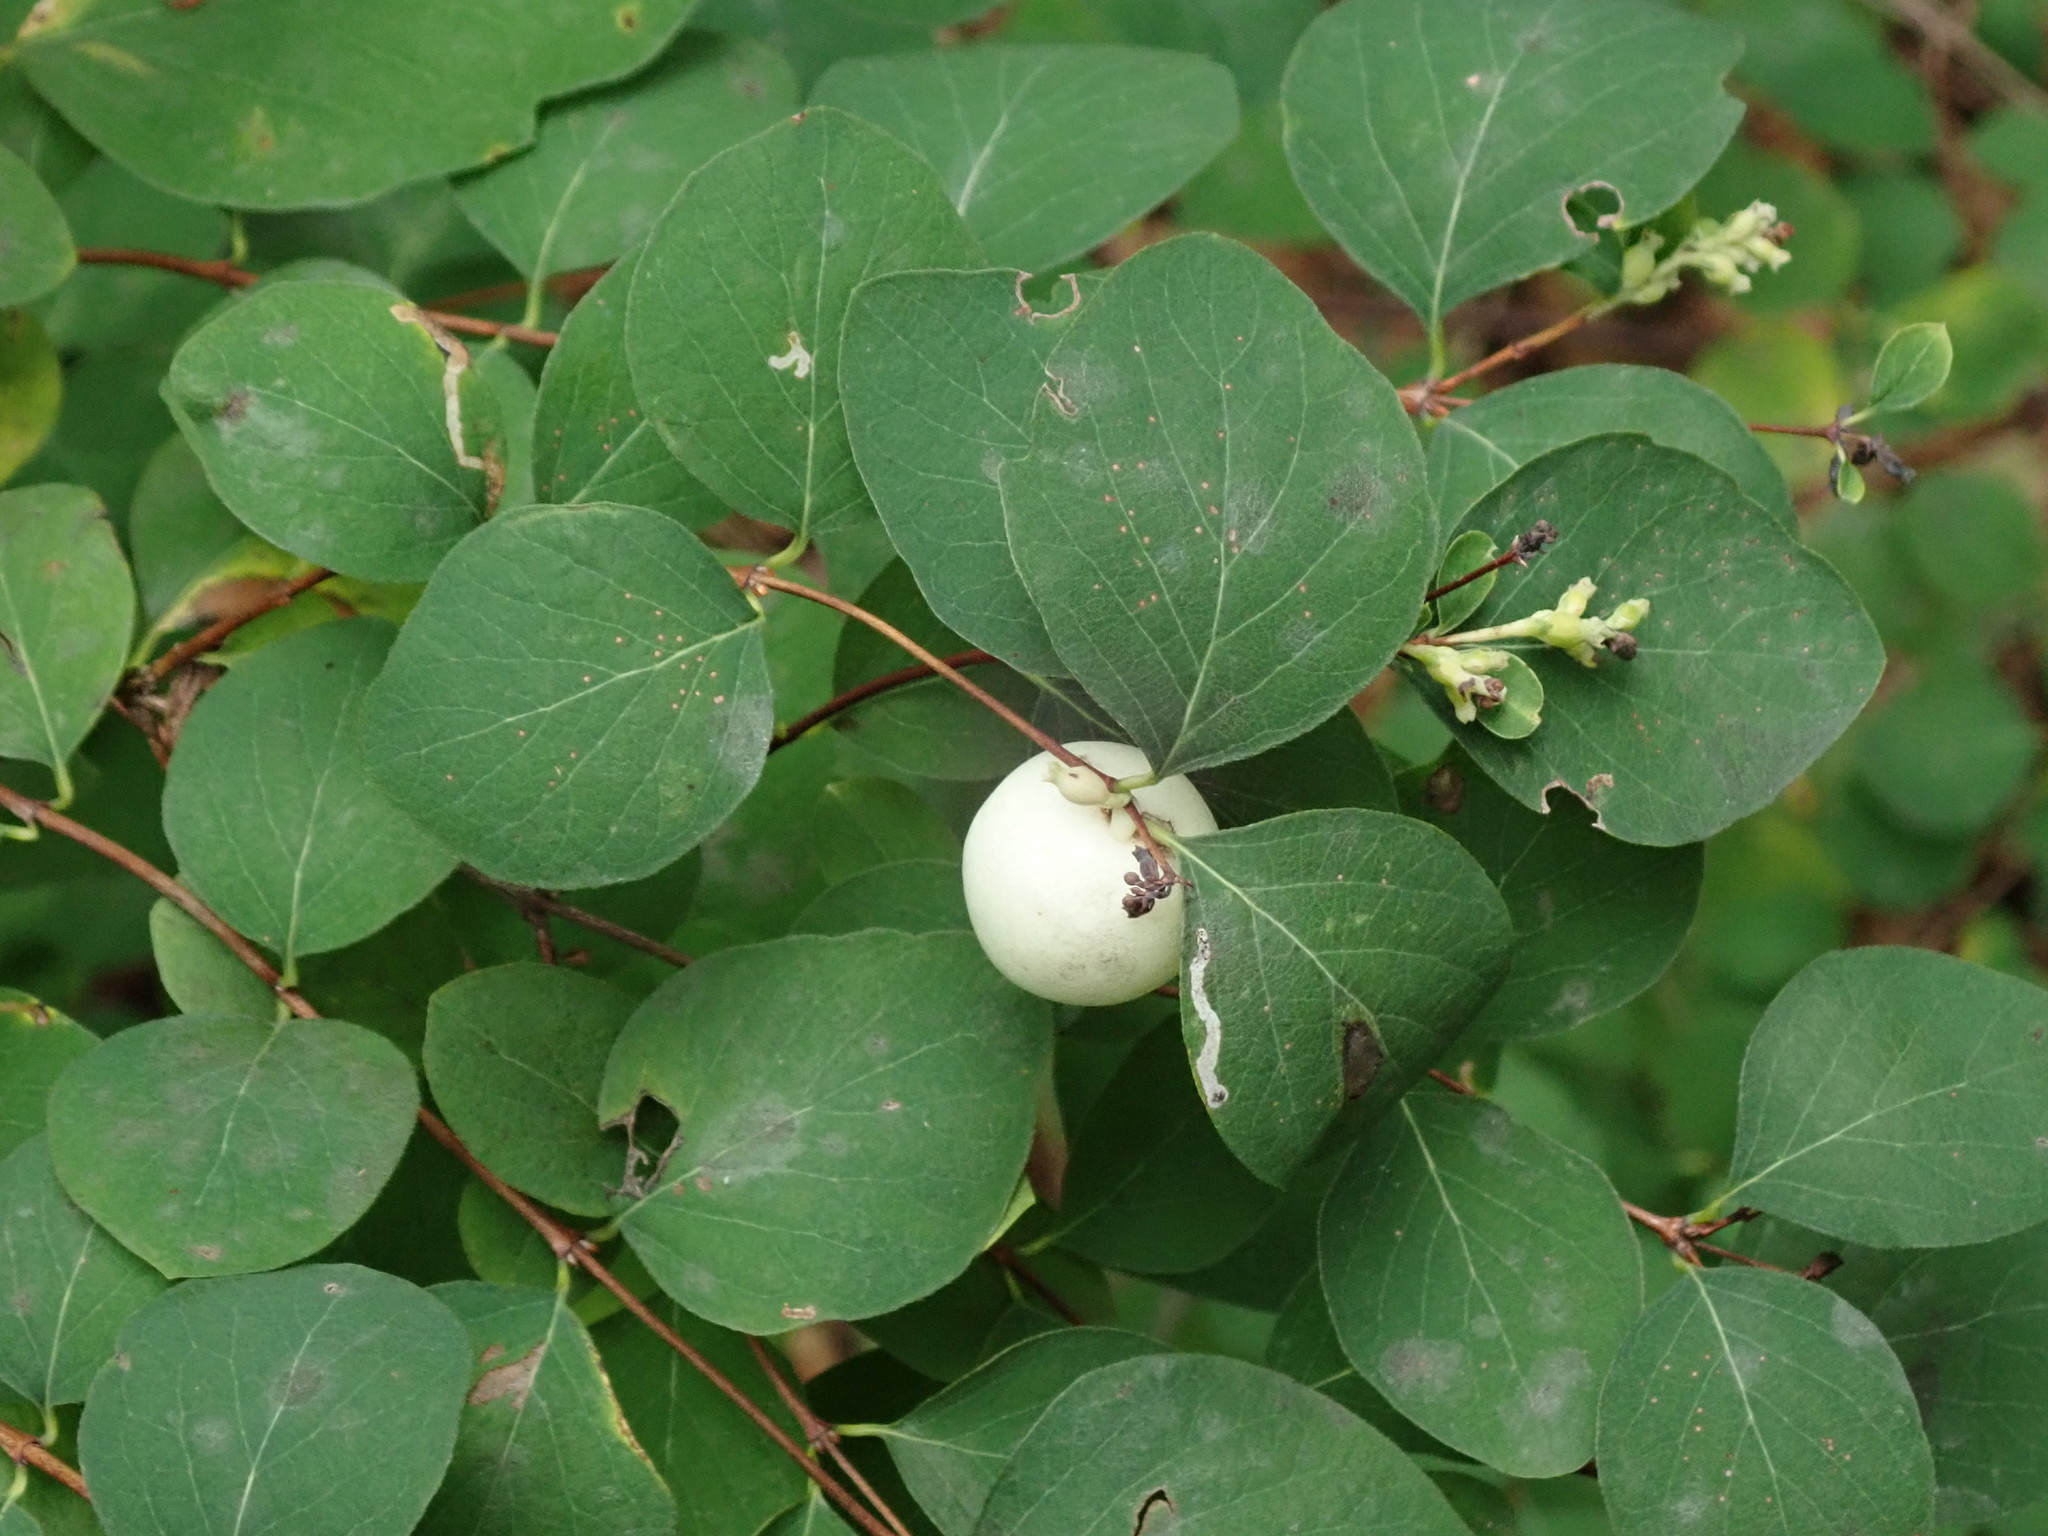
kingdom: Plantae
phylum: Tracheophyta
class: Magnoliopsida
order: Dipsacales
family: Caprifoliaceae
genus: Symphoricarpos
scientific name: Symphoricarpos albus
